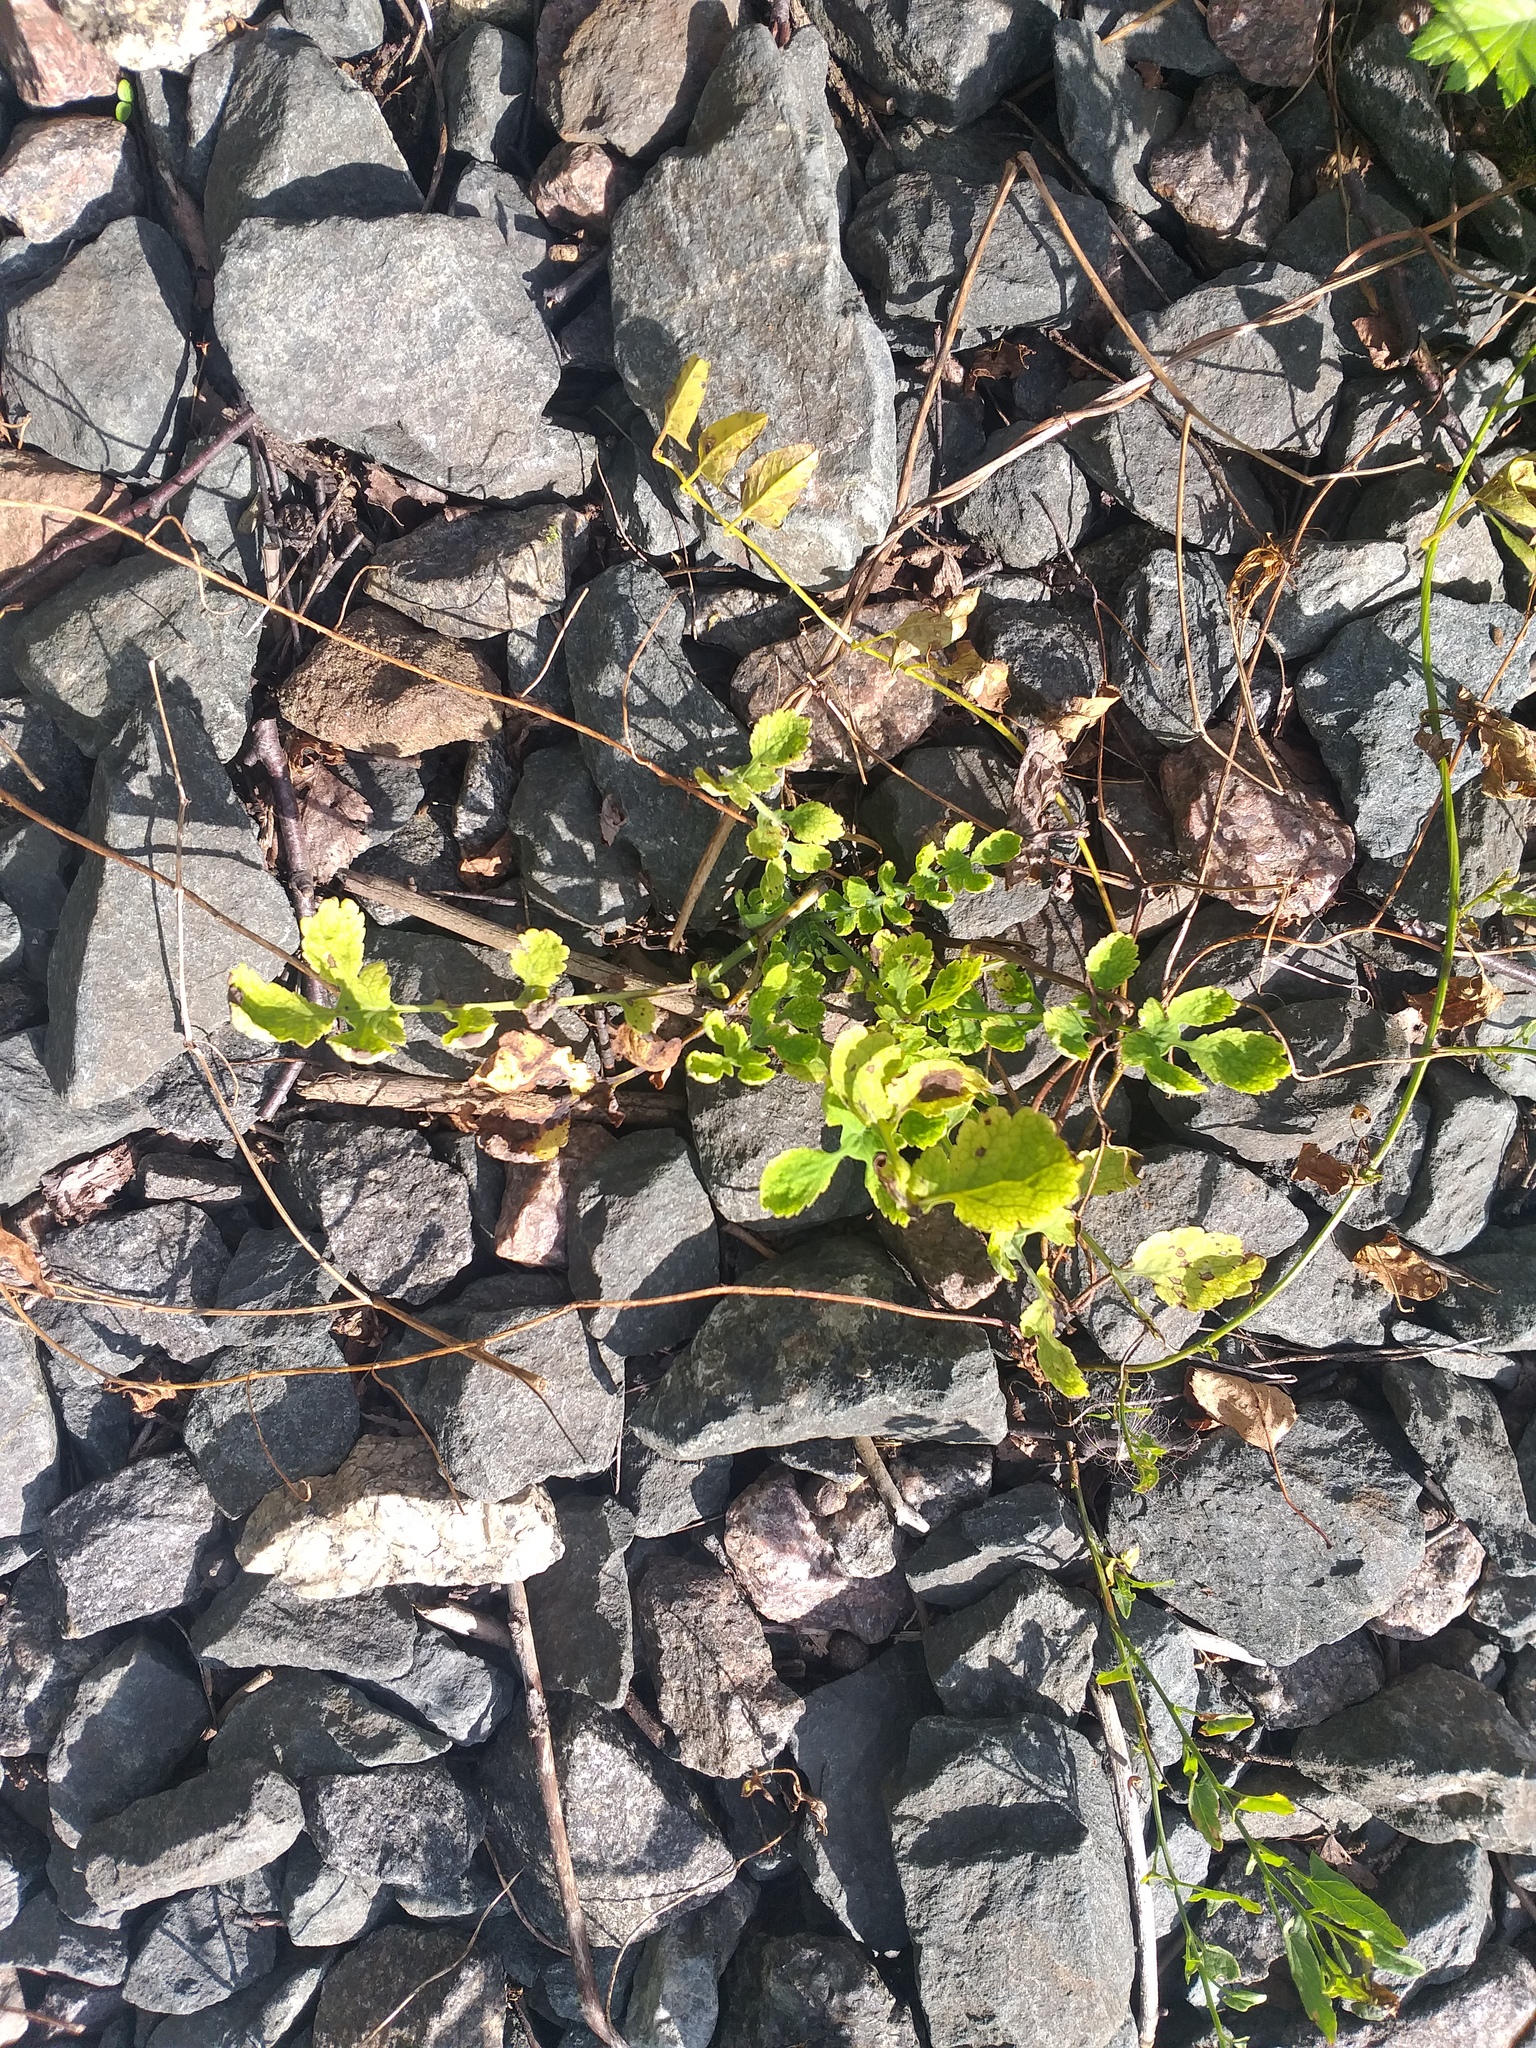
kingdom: Plantae
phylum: Tracheophyta
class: Magnoliopsida
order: Ranunculales
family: Papaveraceae
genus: Chelidonium
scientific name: Chelidonium majus
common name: Greater celandine
